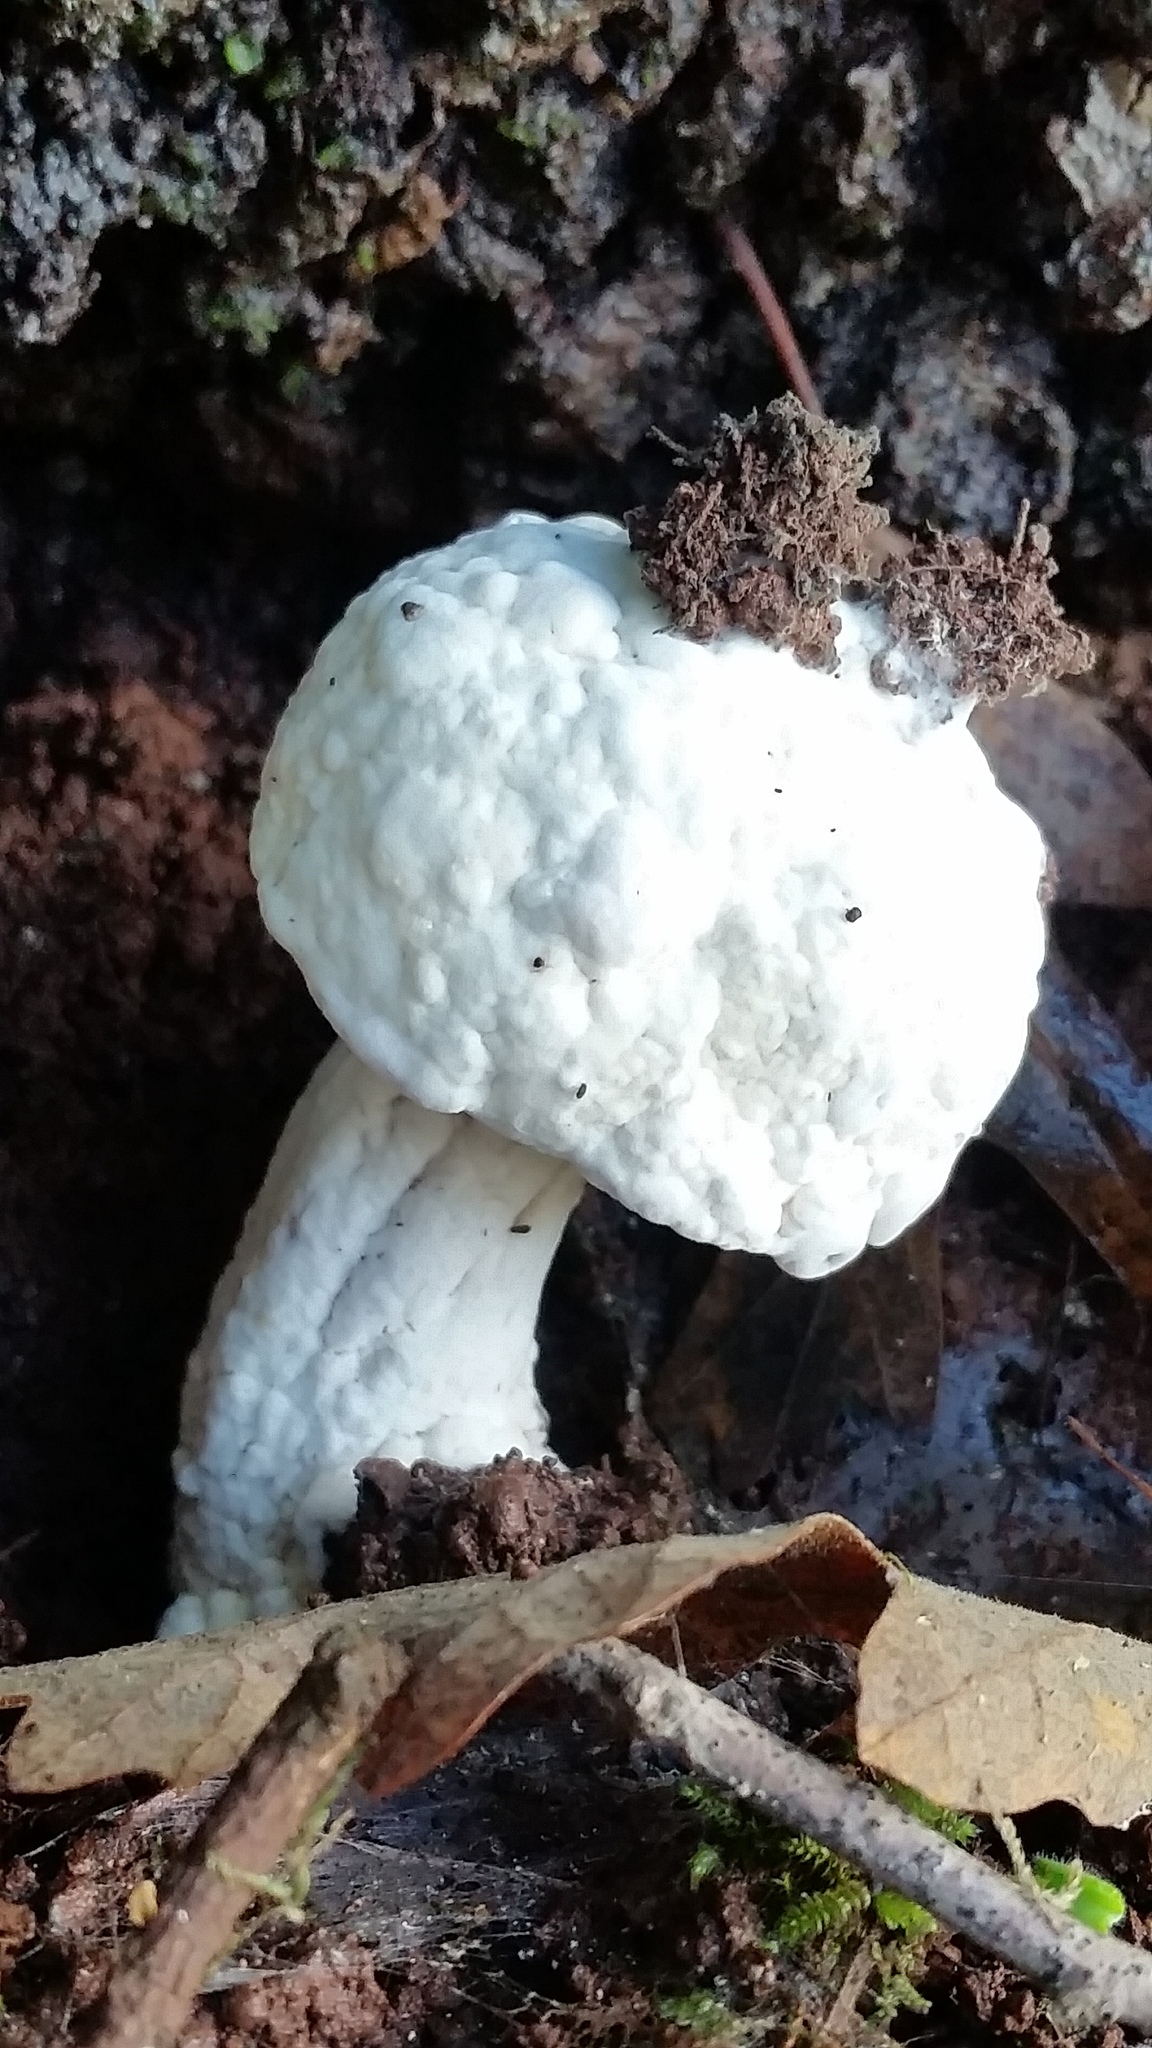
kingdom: Fungi
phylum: Ascomycota
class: Sordariomycetes
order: Hypocreales
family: Hypocreaceae
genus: Hypomyces
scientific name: Hypomyces chrysospermus
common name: Bolete mould
